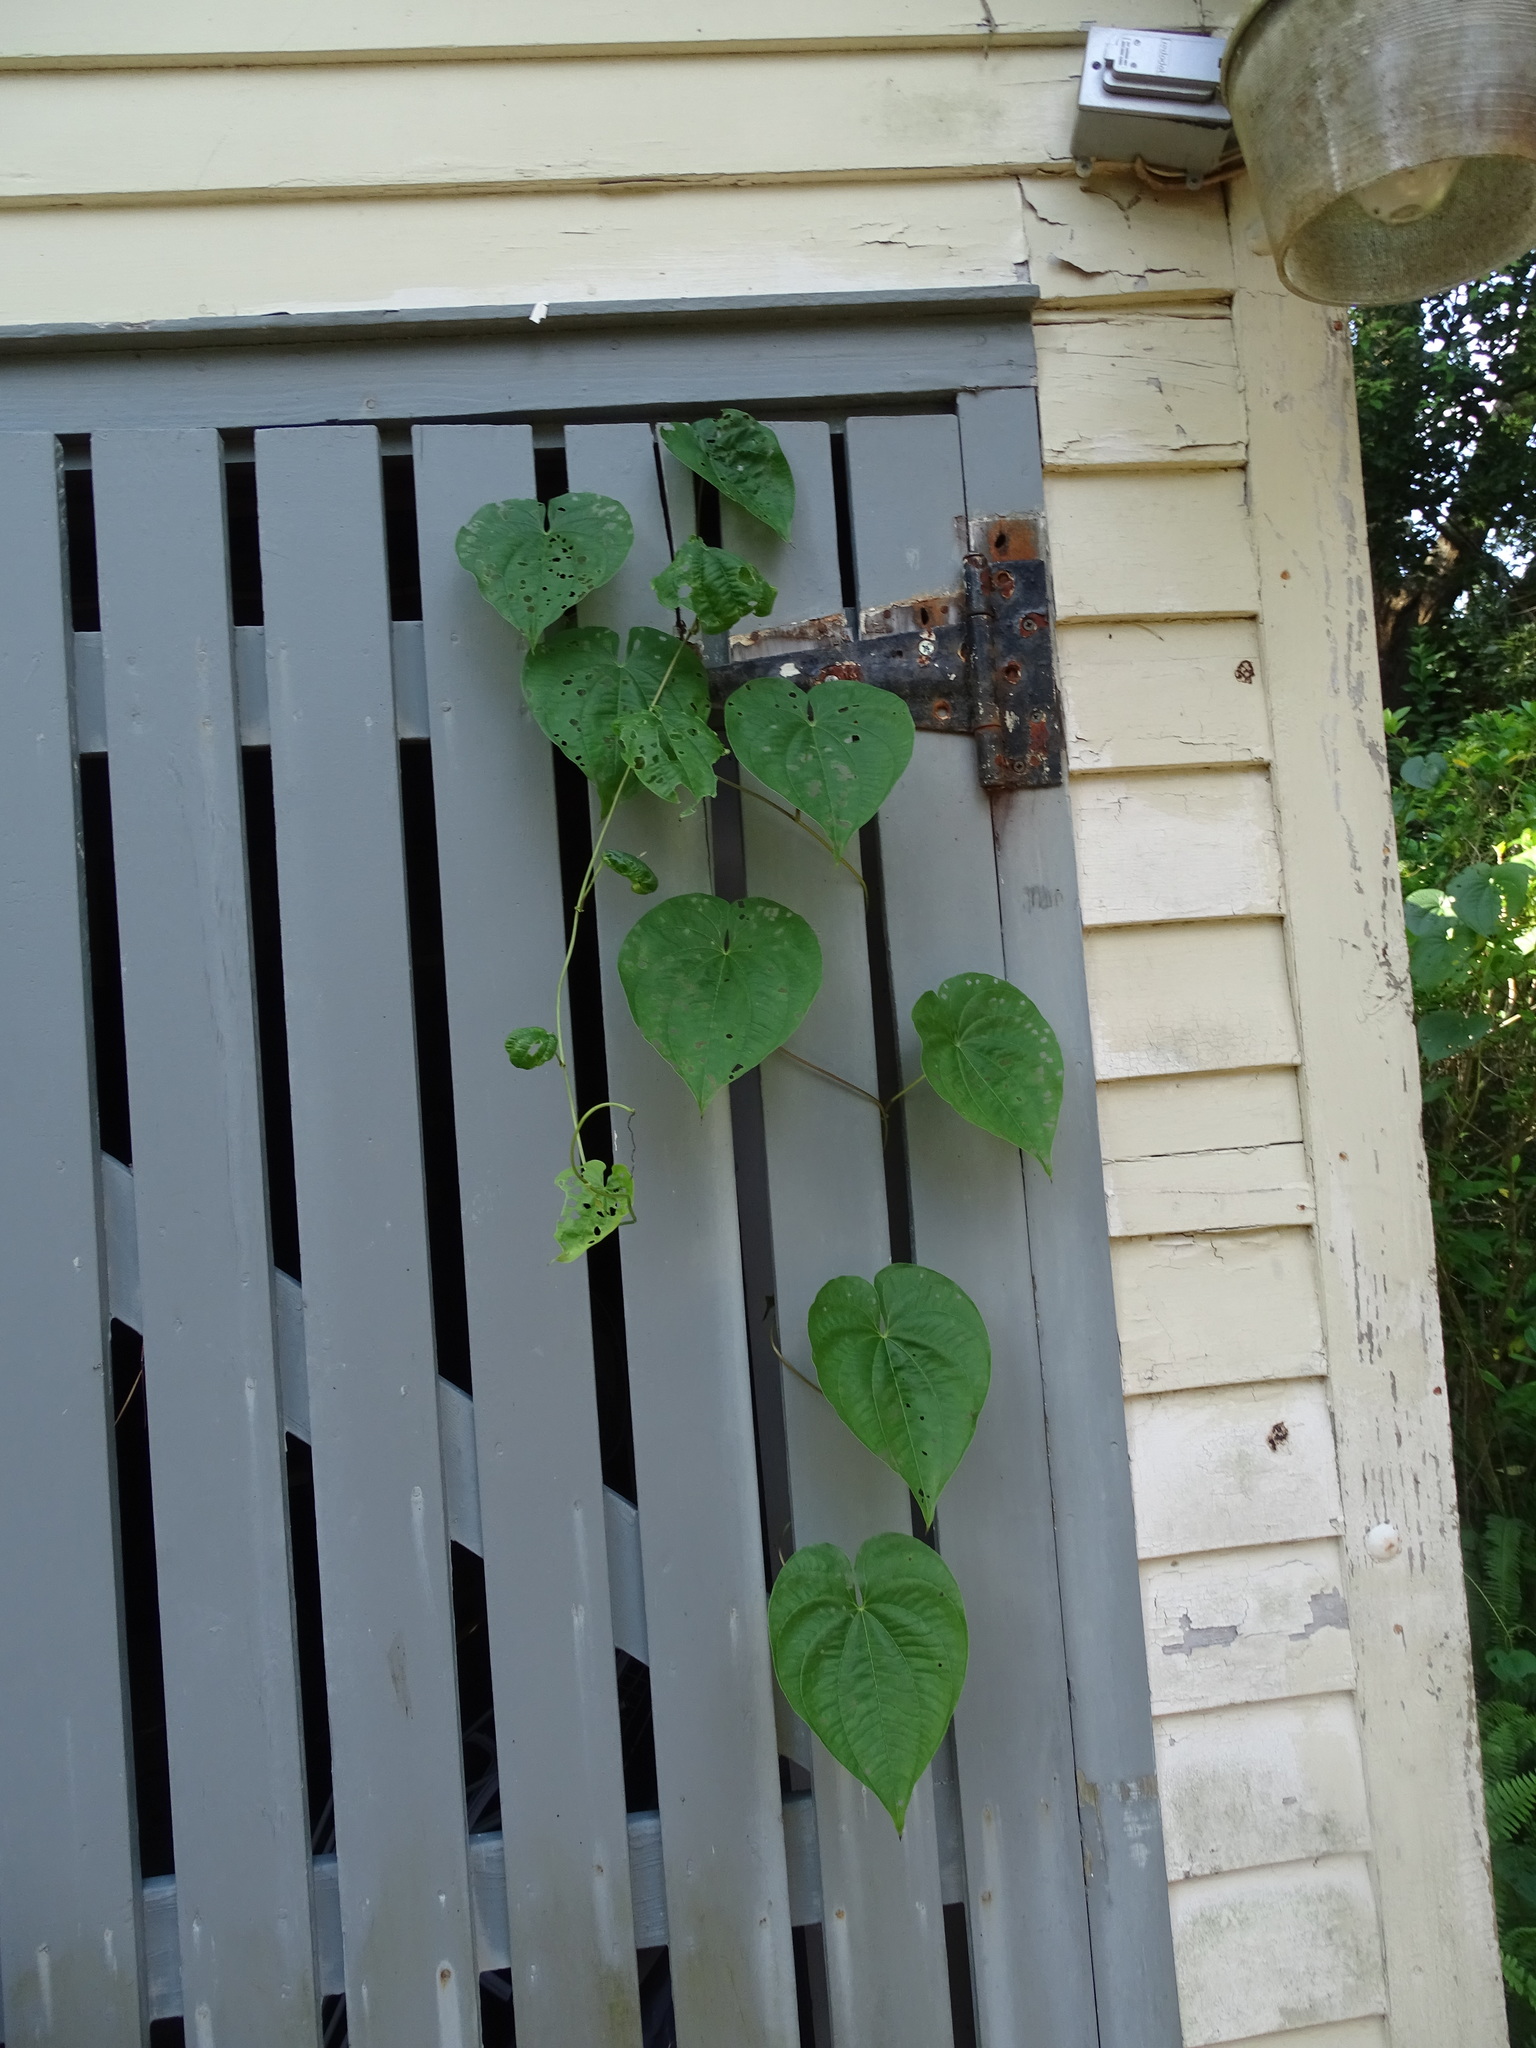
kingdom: Plantae
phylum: Tracheophyta
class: Liliopsida
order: Dioscoreales
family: Dioscoreaceae
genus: Dioscorea
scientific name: Dioscorea bulbifera
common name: Air yam
